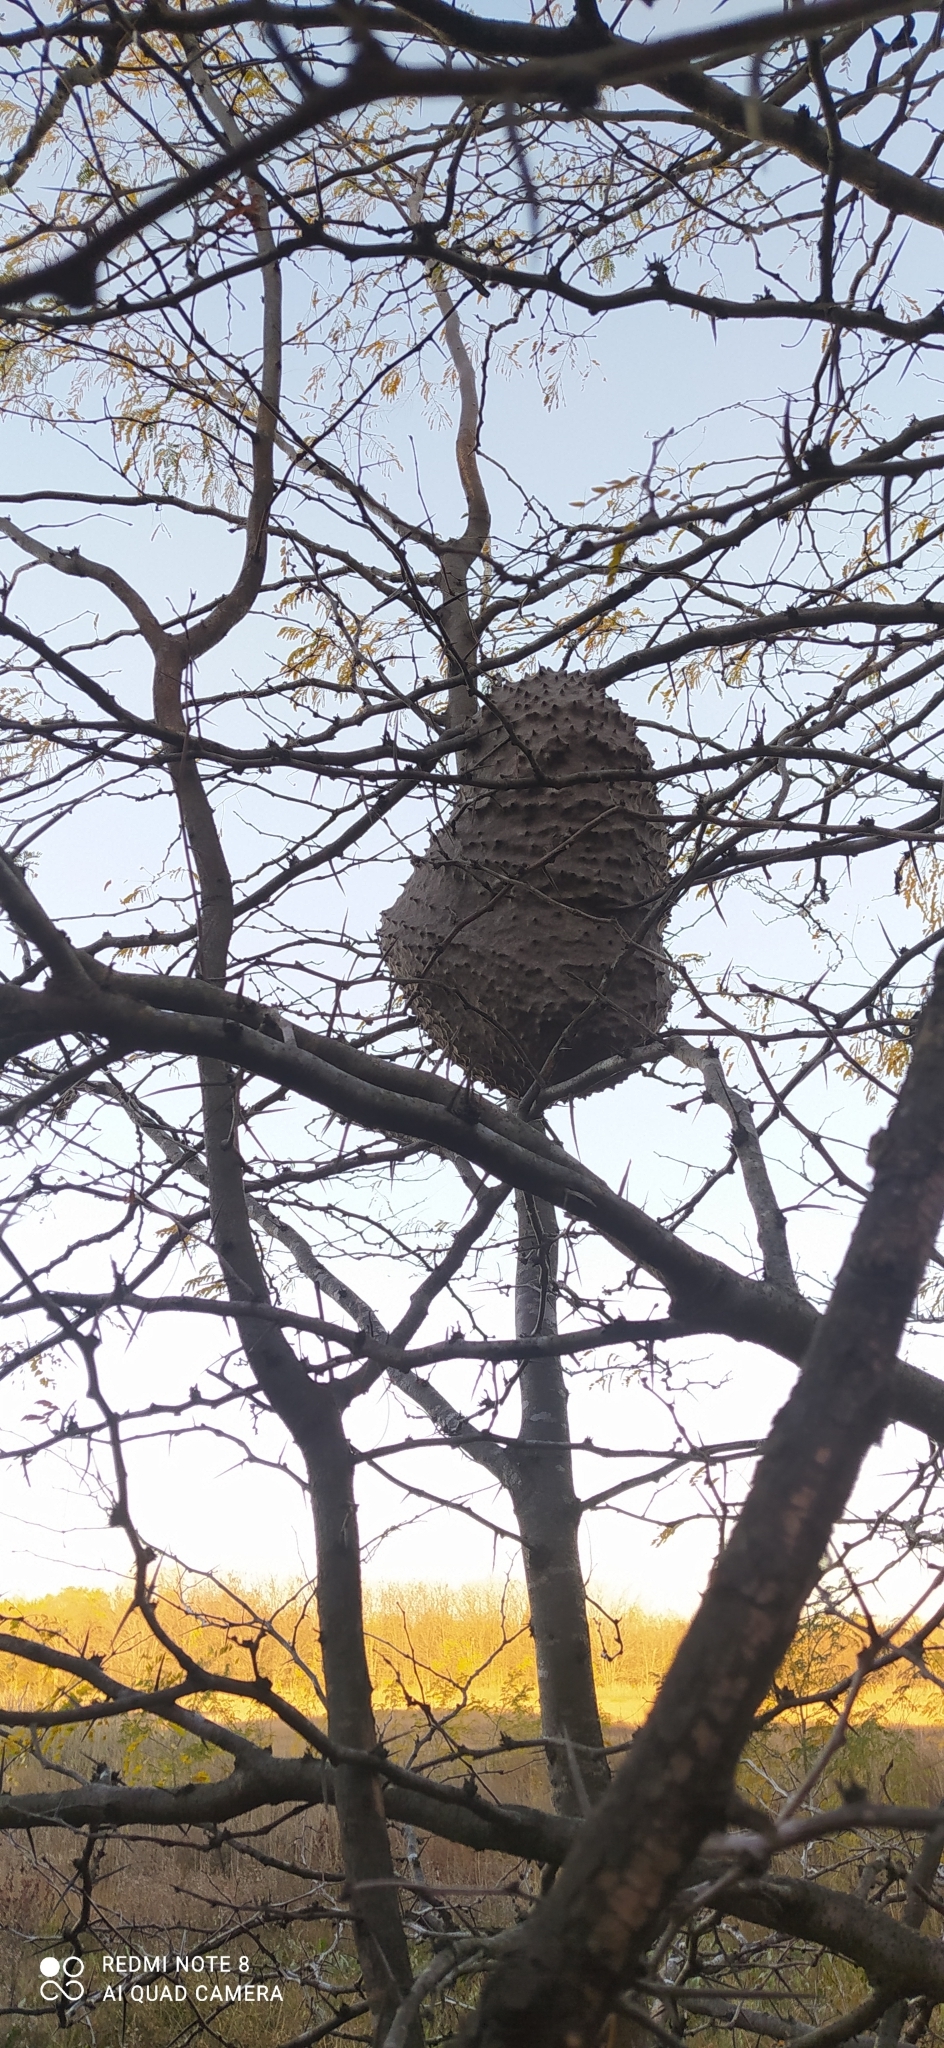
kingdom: Animalia
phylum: Arthropoda
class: Insecta
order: Hymenoptera
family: Eumenidae
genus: Polybia
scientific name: Polybia scutellaris
